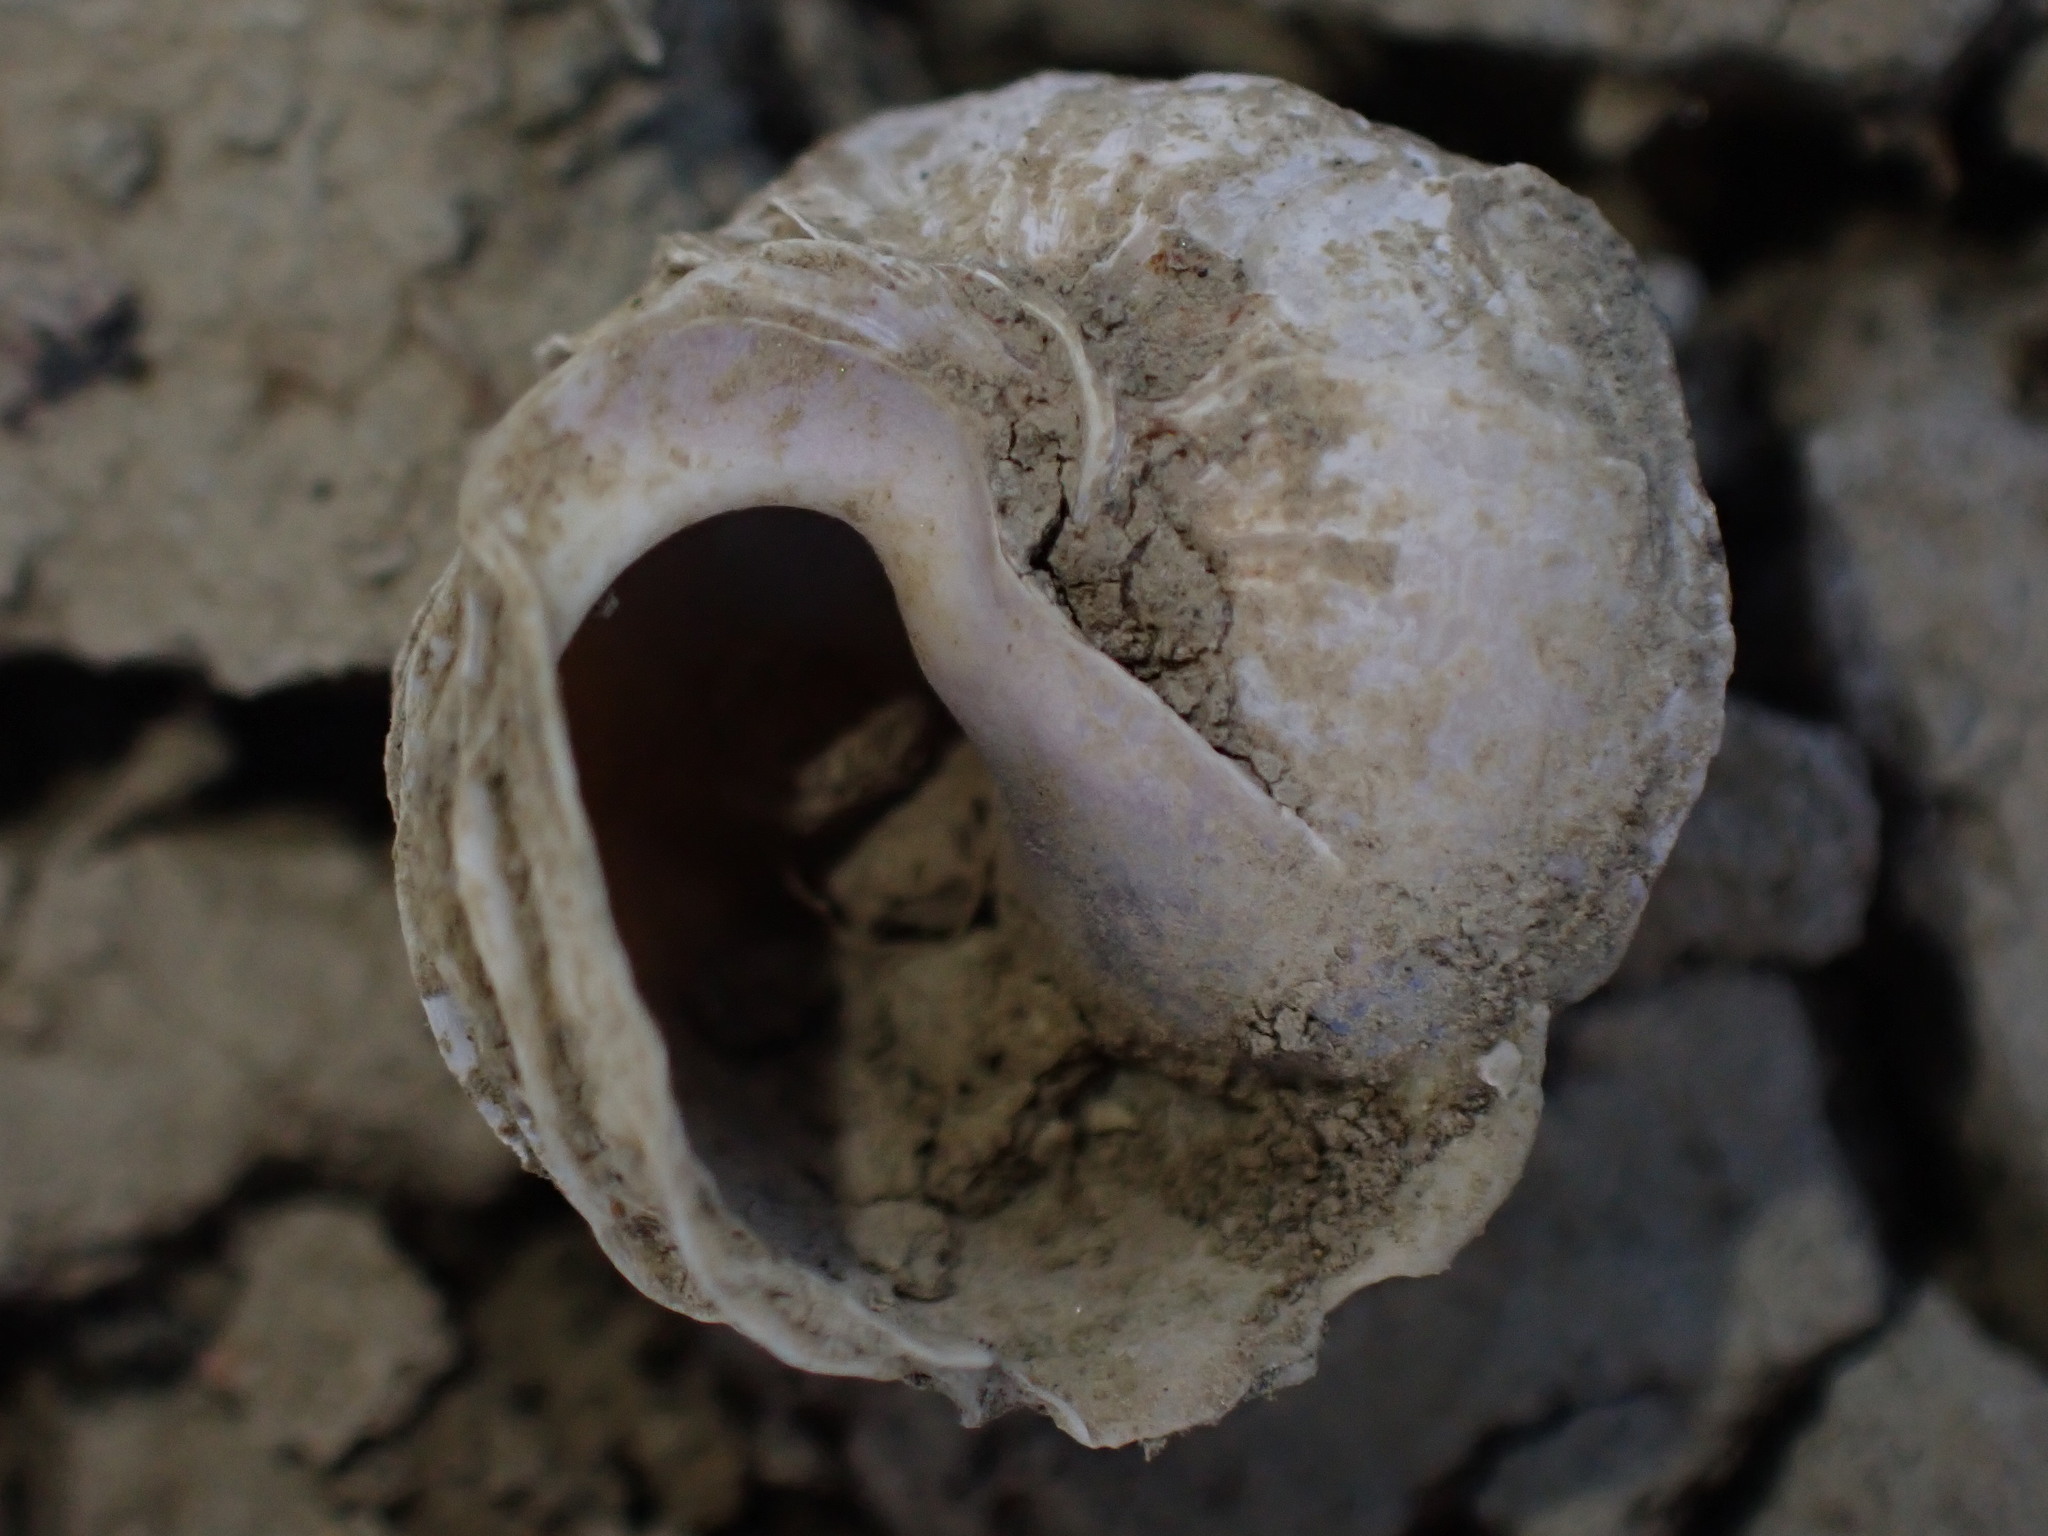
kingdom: Animalia
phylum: Mollusca
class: Gastropoda
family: Amphibolidae
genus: Amphibola
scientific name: Amphibola crenata
